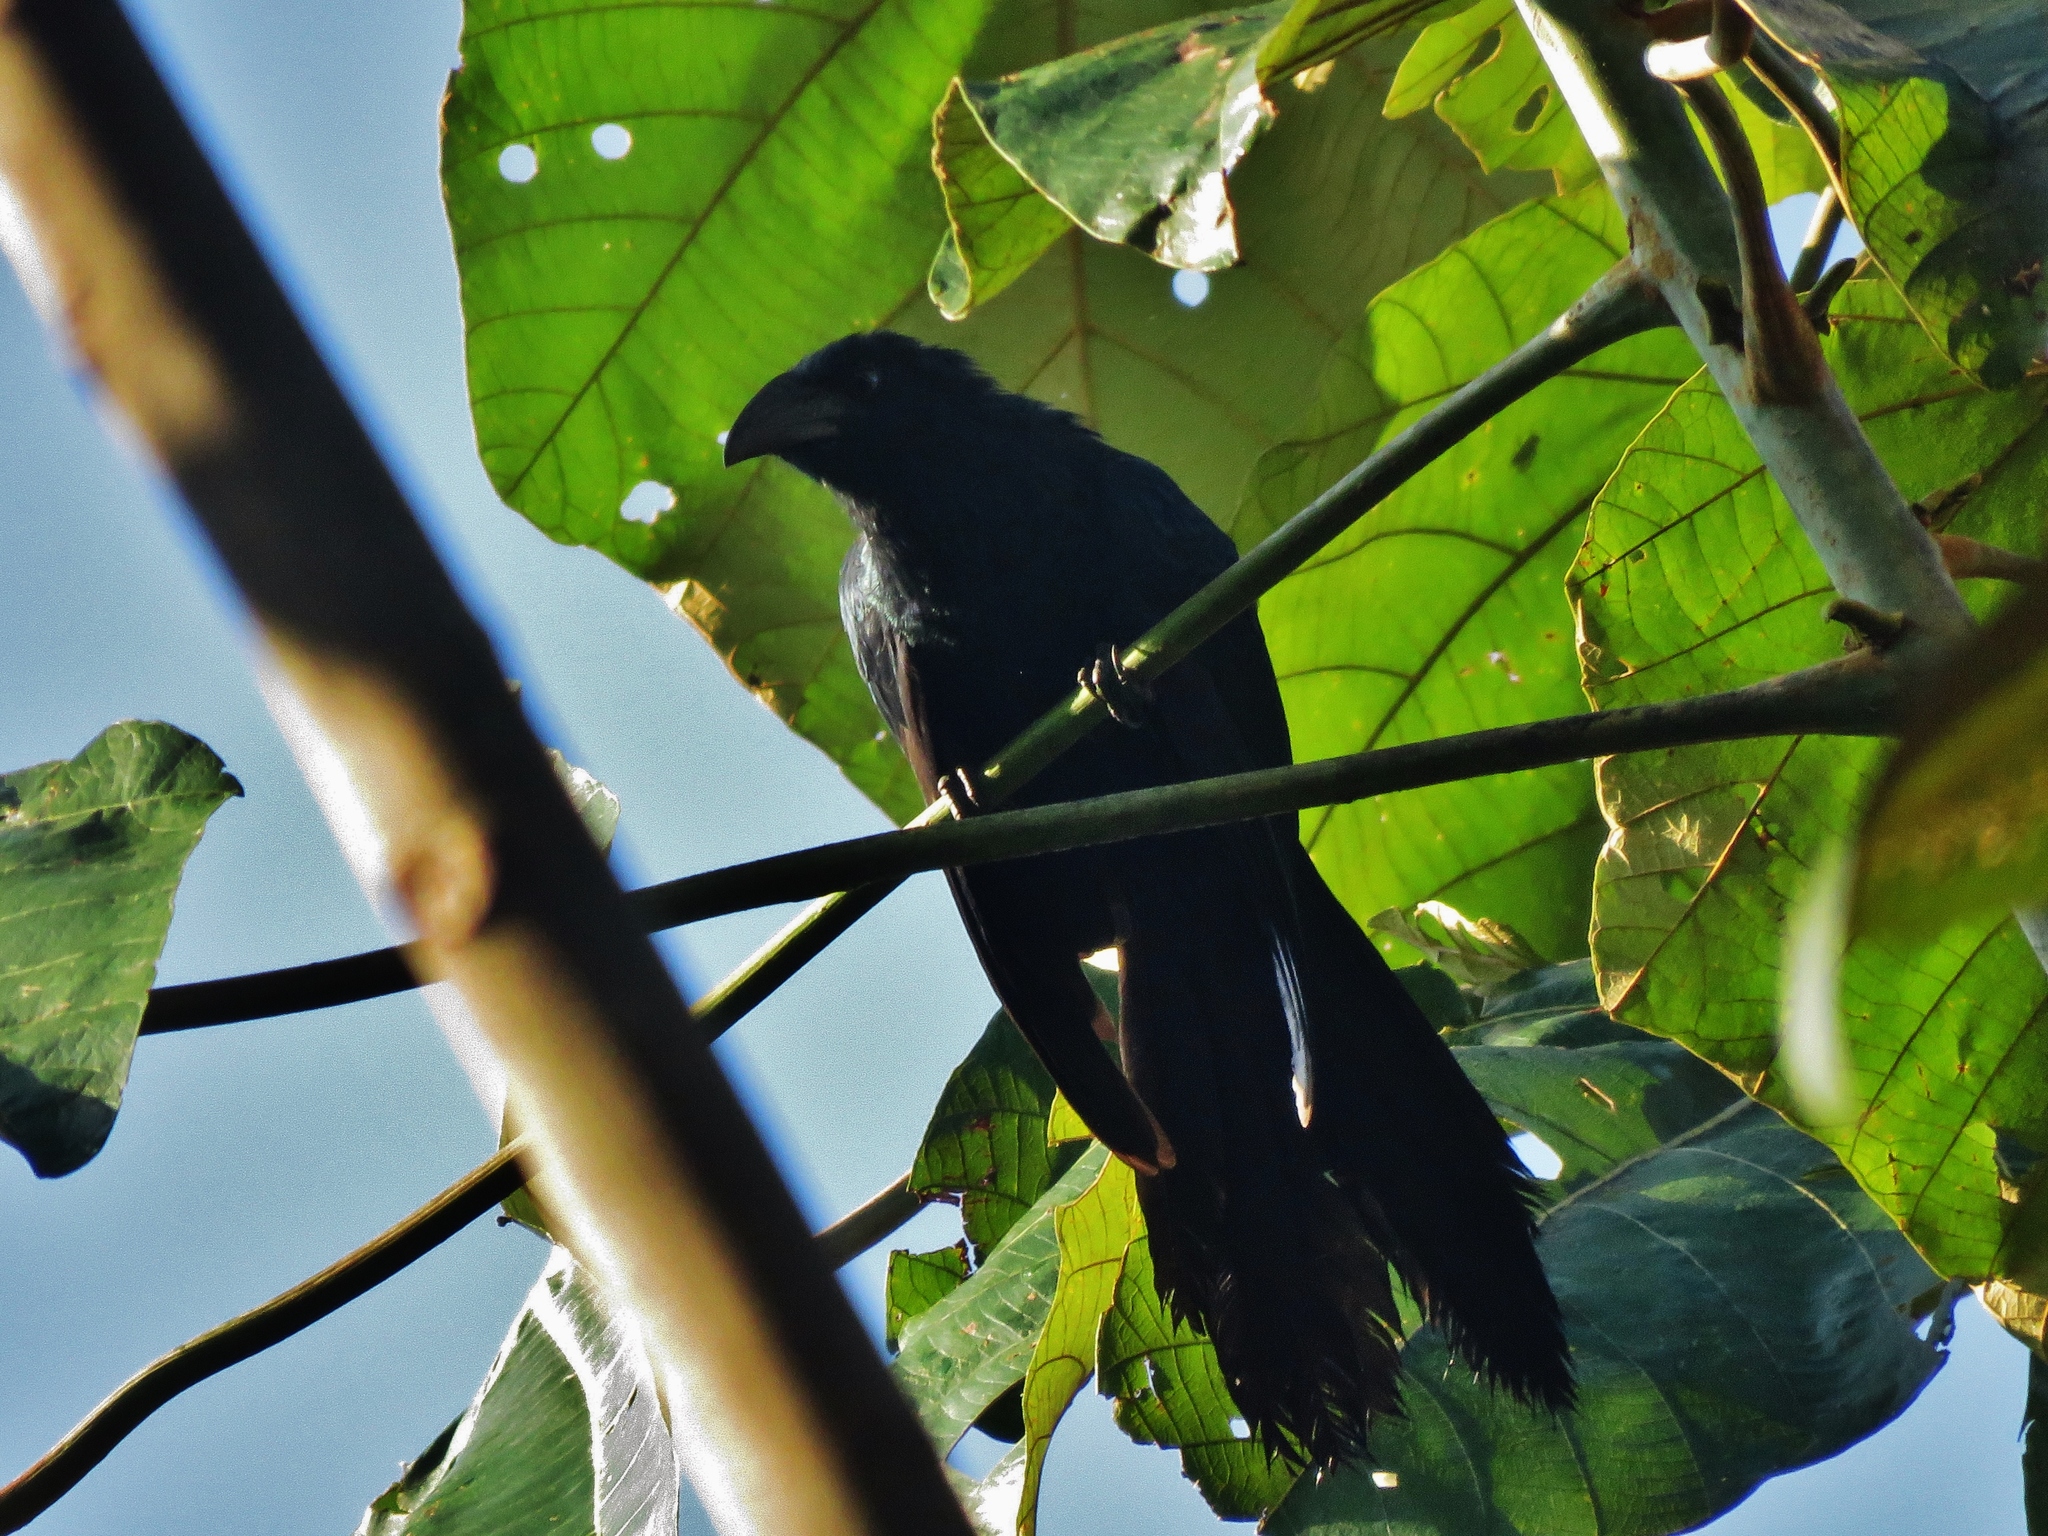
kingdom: Animalia
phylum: Chordata
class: Aves
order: Cuculiformes
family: Cuculidae
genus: Crotophaga
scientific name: Crotophaga major
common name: Greater ani
